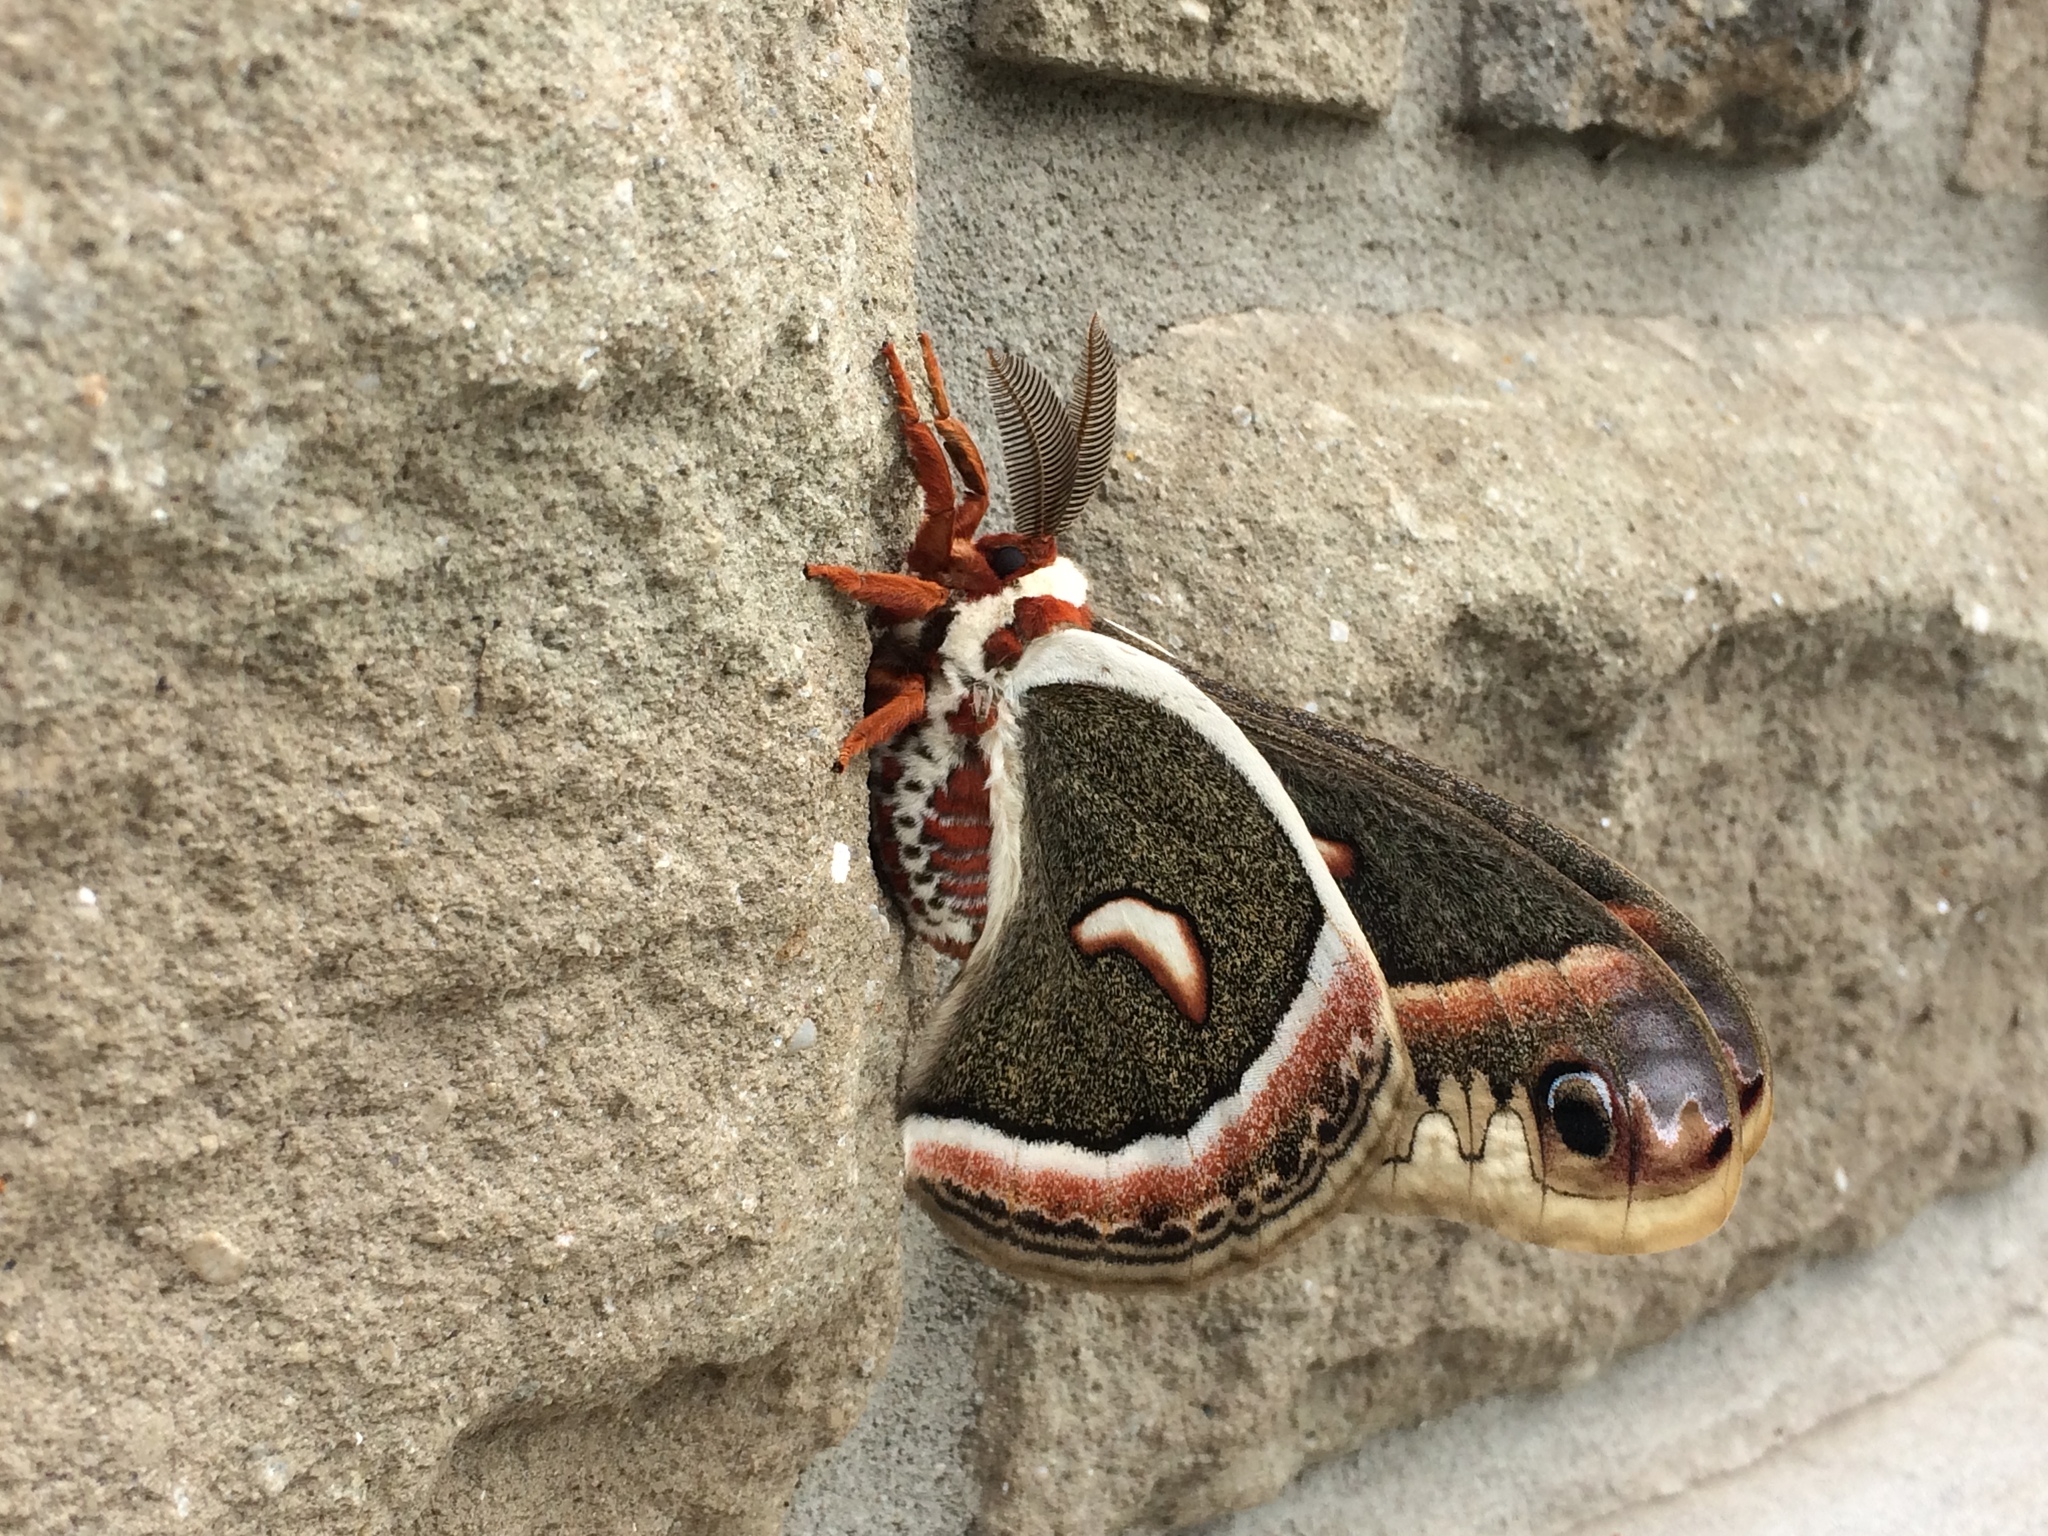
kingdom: Animalia
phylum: Arthropoda
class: Insecta
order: Lepidoptera
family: Saturniidae
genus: Hyalophora
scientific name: Hyalophora cecropia
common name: Cecropia silkmoth
